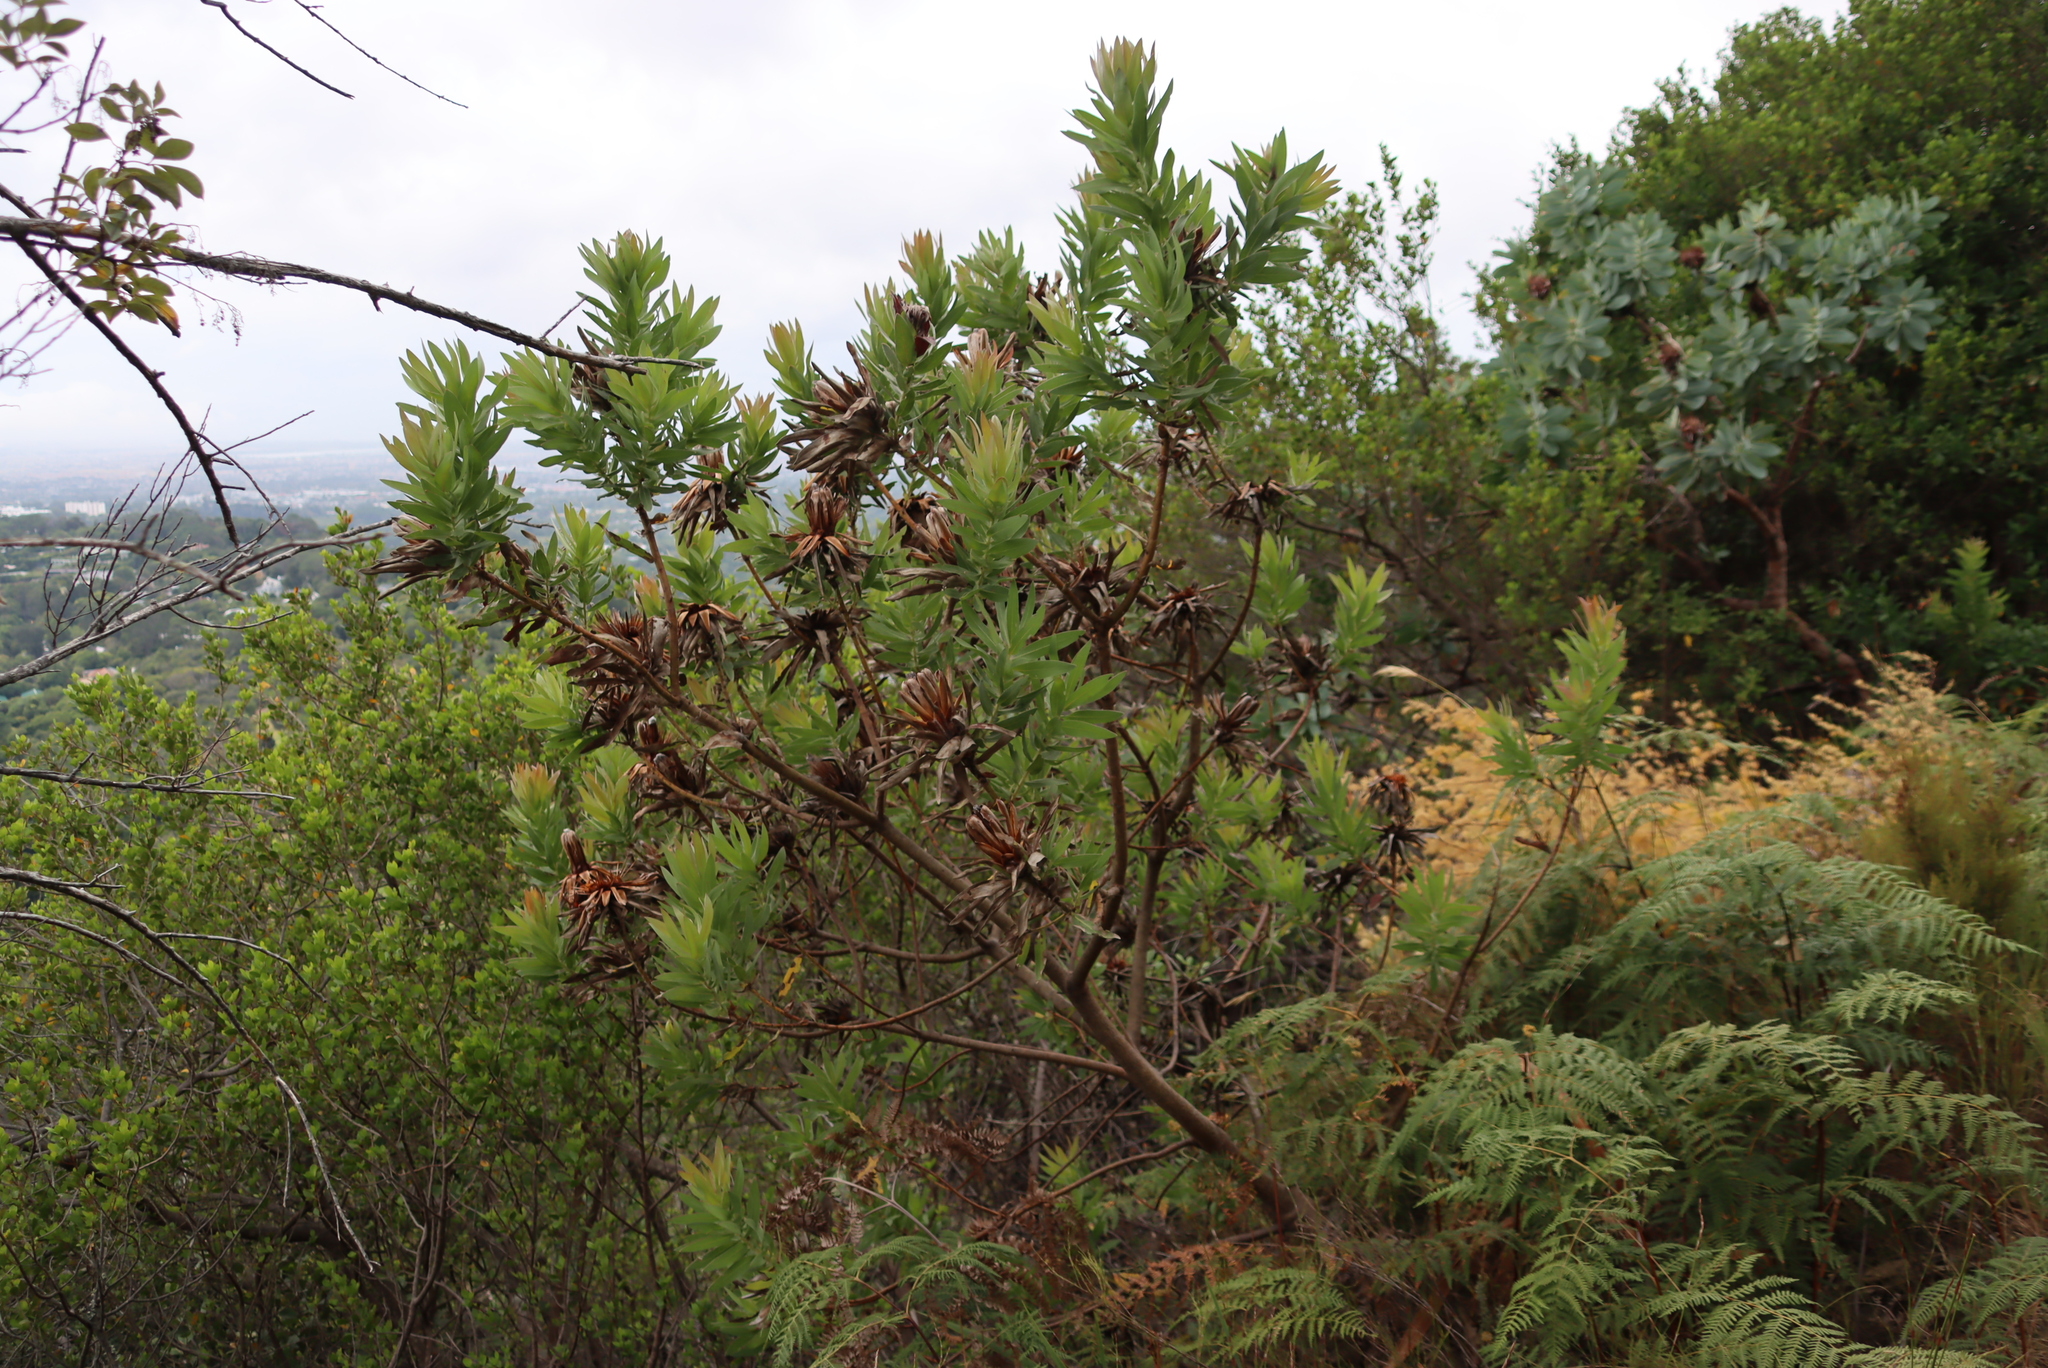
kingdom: Plantae
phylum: Tracheophyta
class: Magnoliopsida
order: Proteales
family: Proteaceae
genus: Protea
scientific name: Protea coronata
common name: Green sugarbush
